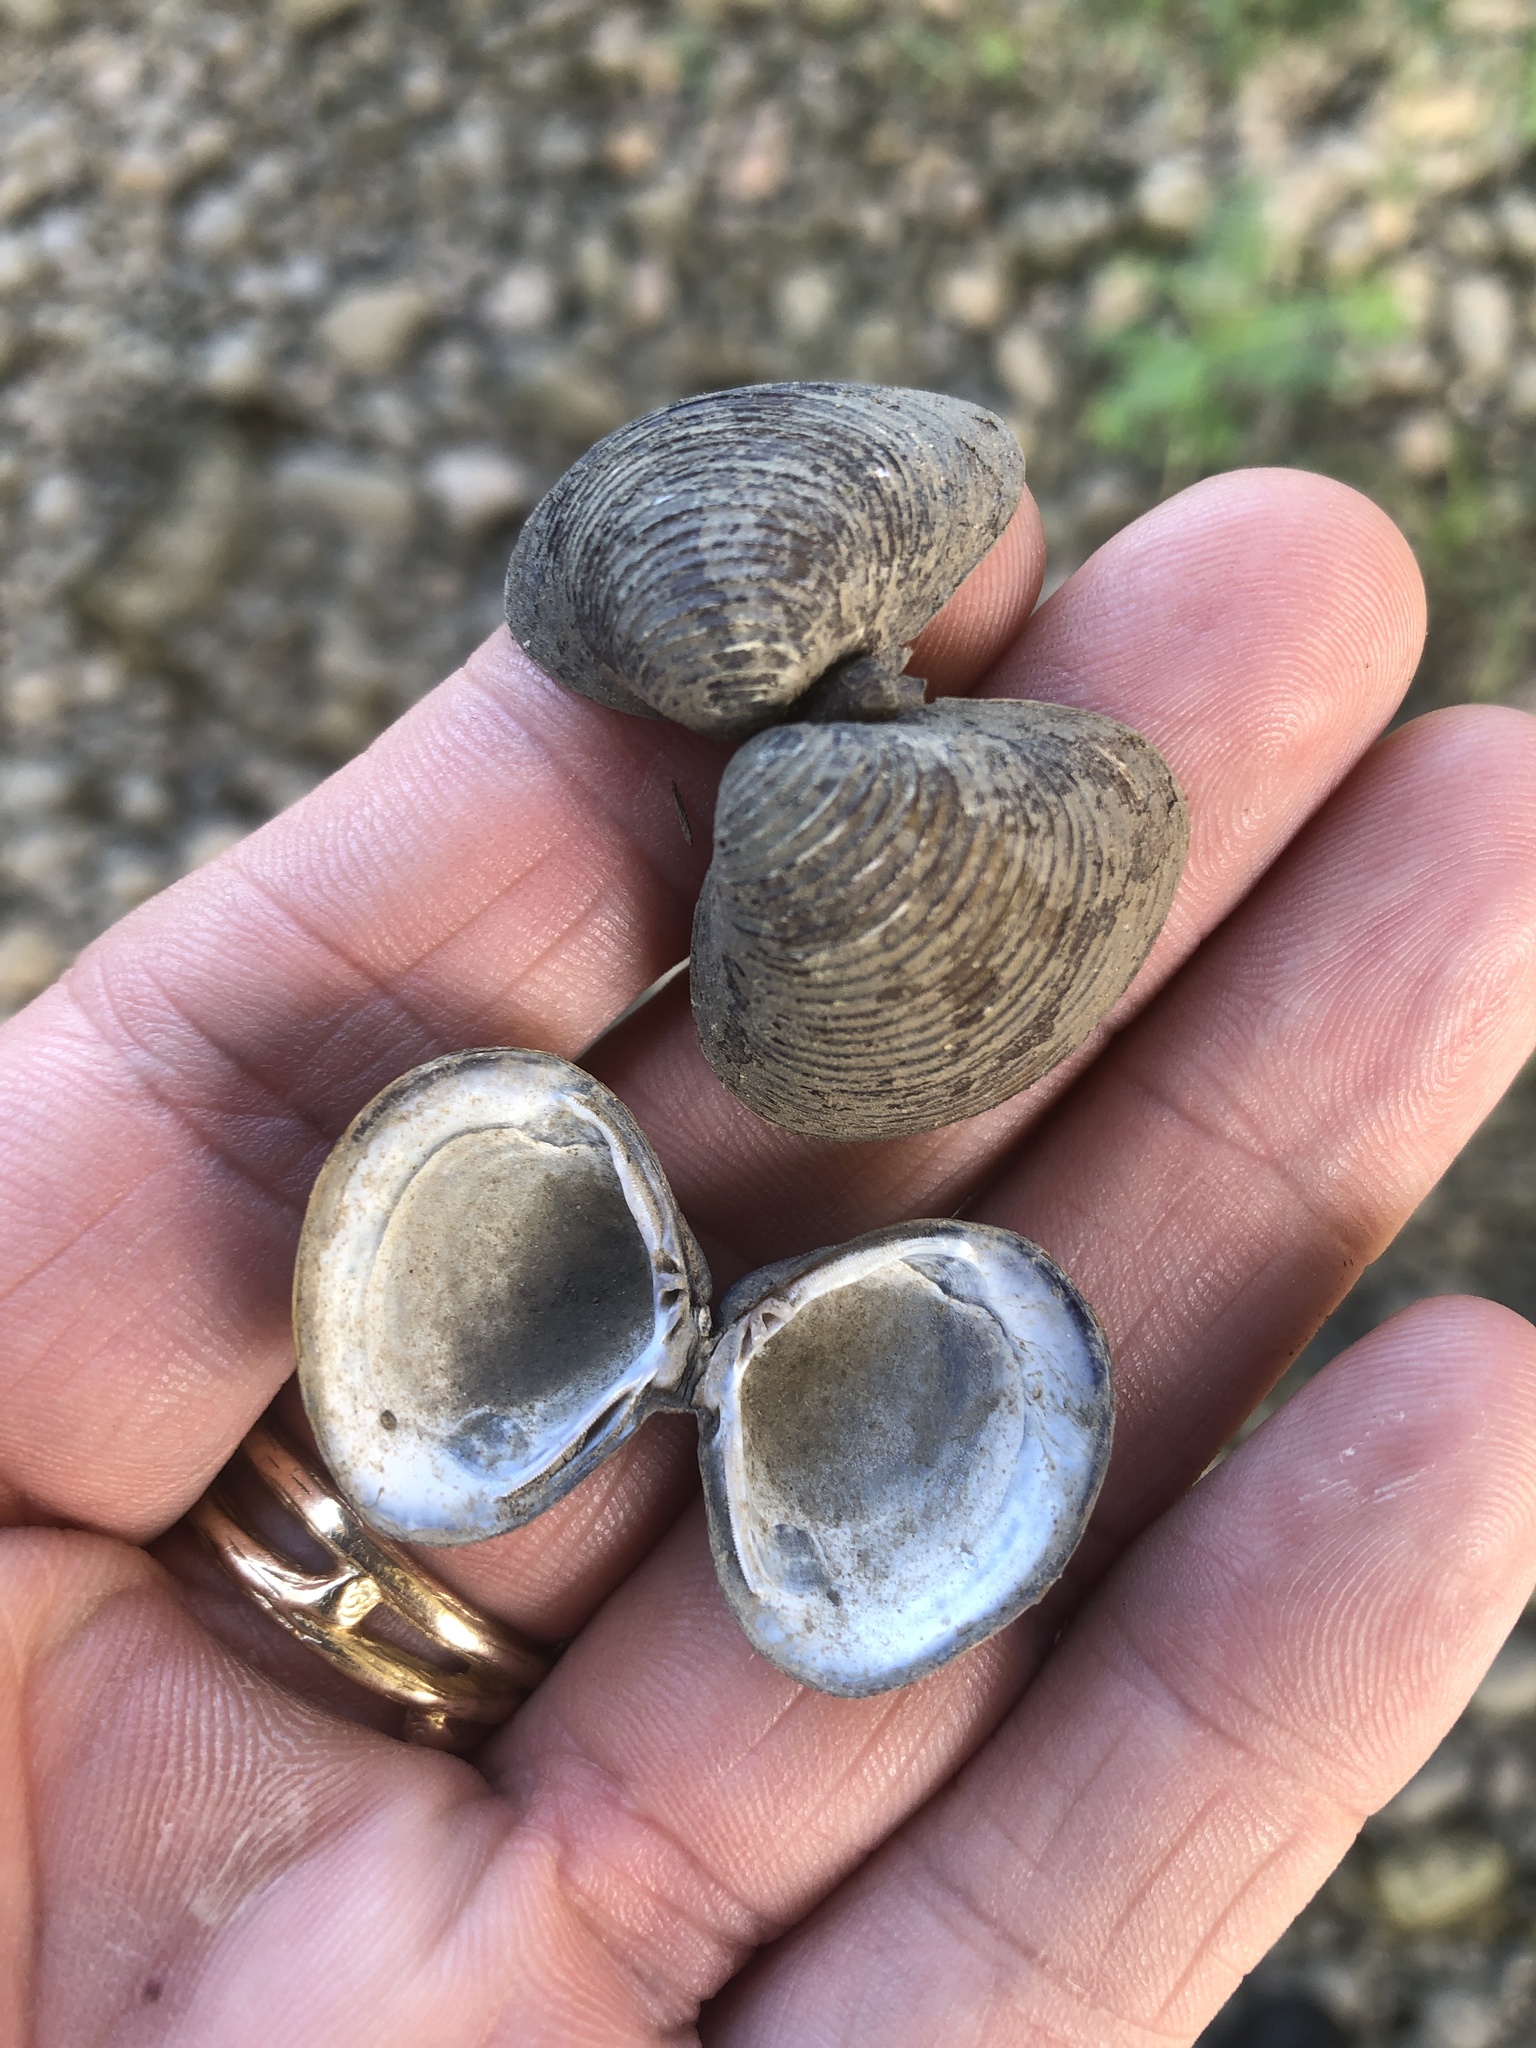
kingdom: Animalia
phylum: Mollusca
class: Bivalvia
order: Venerida
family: Cyrenidae
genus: Corbicula
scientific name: Corbicula fluminea
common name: Asian clam
